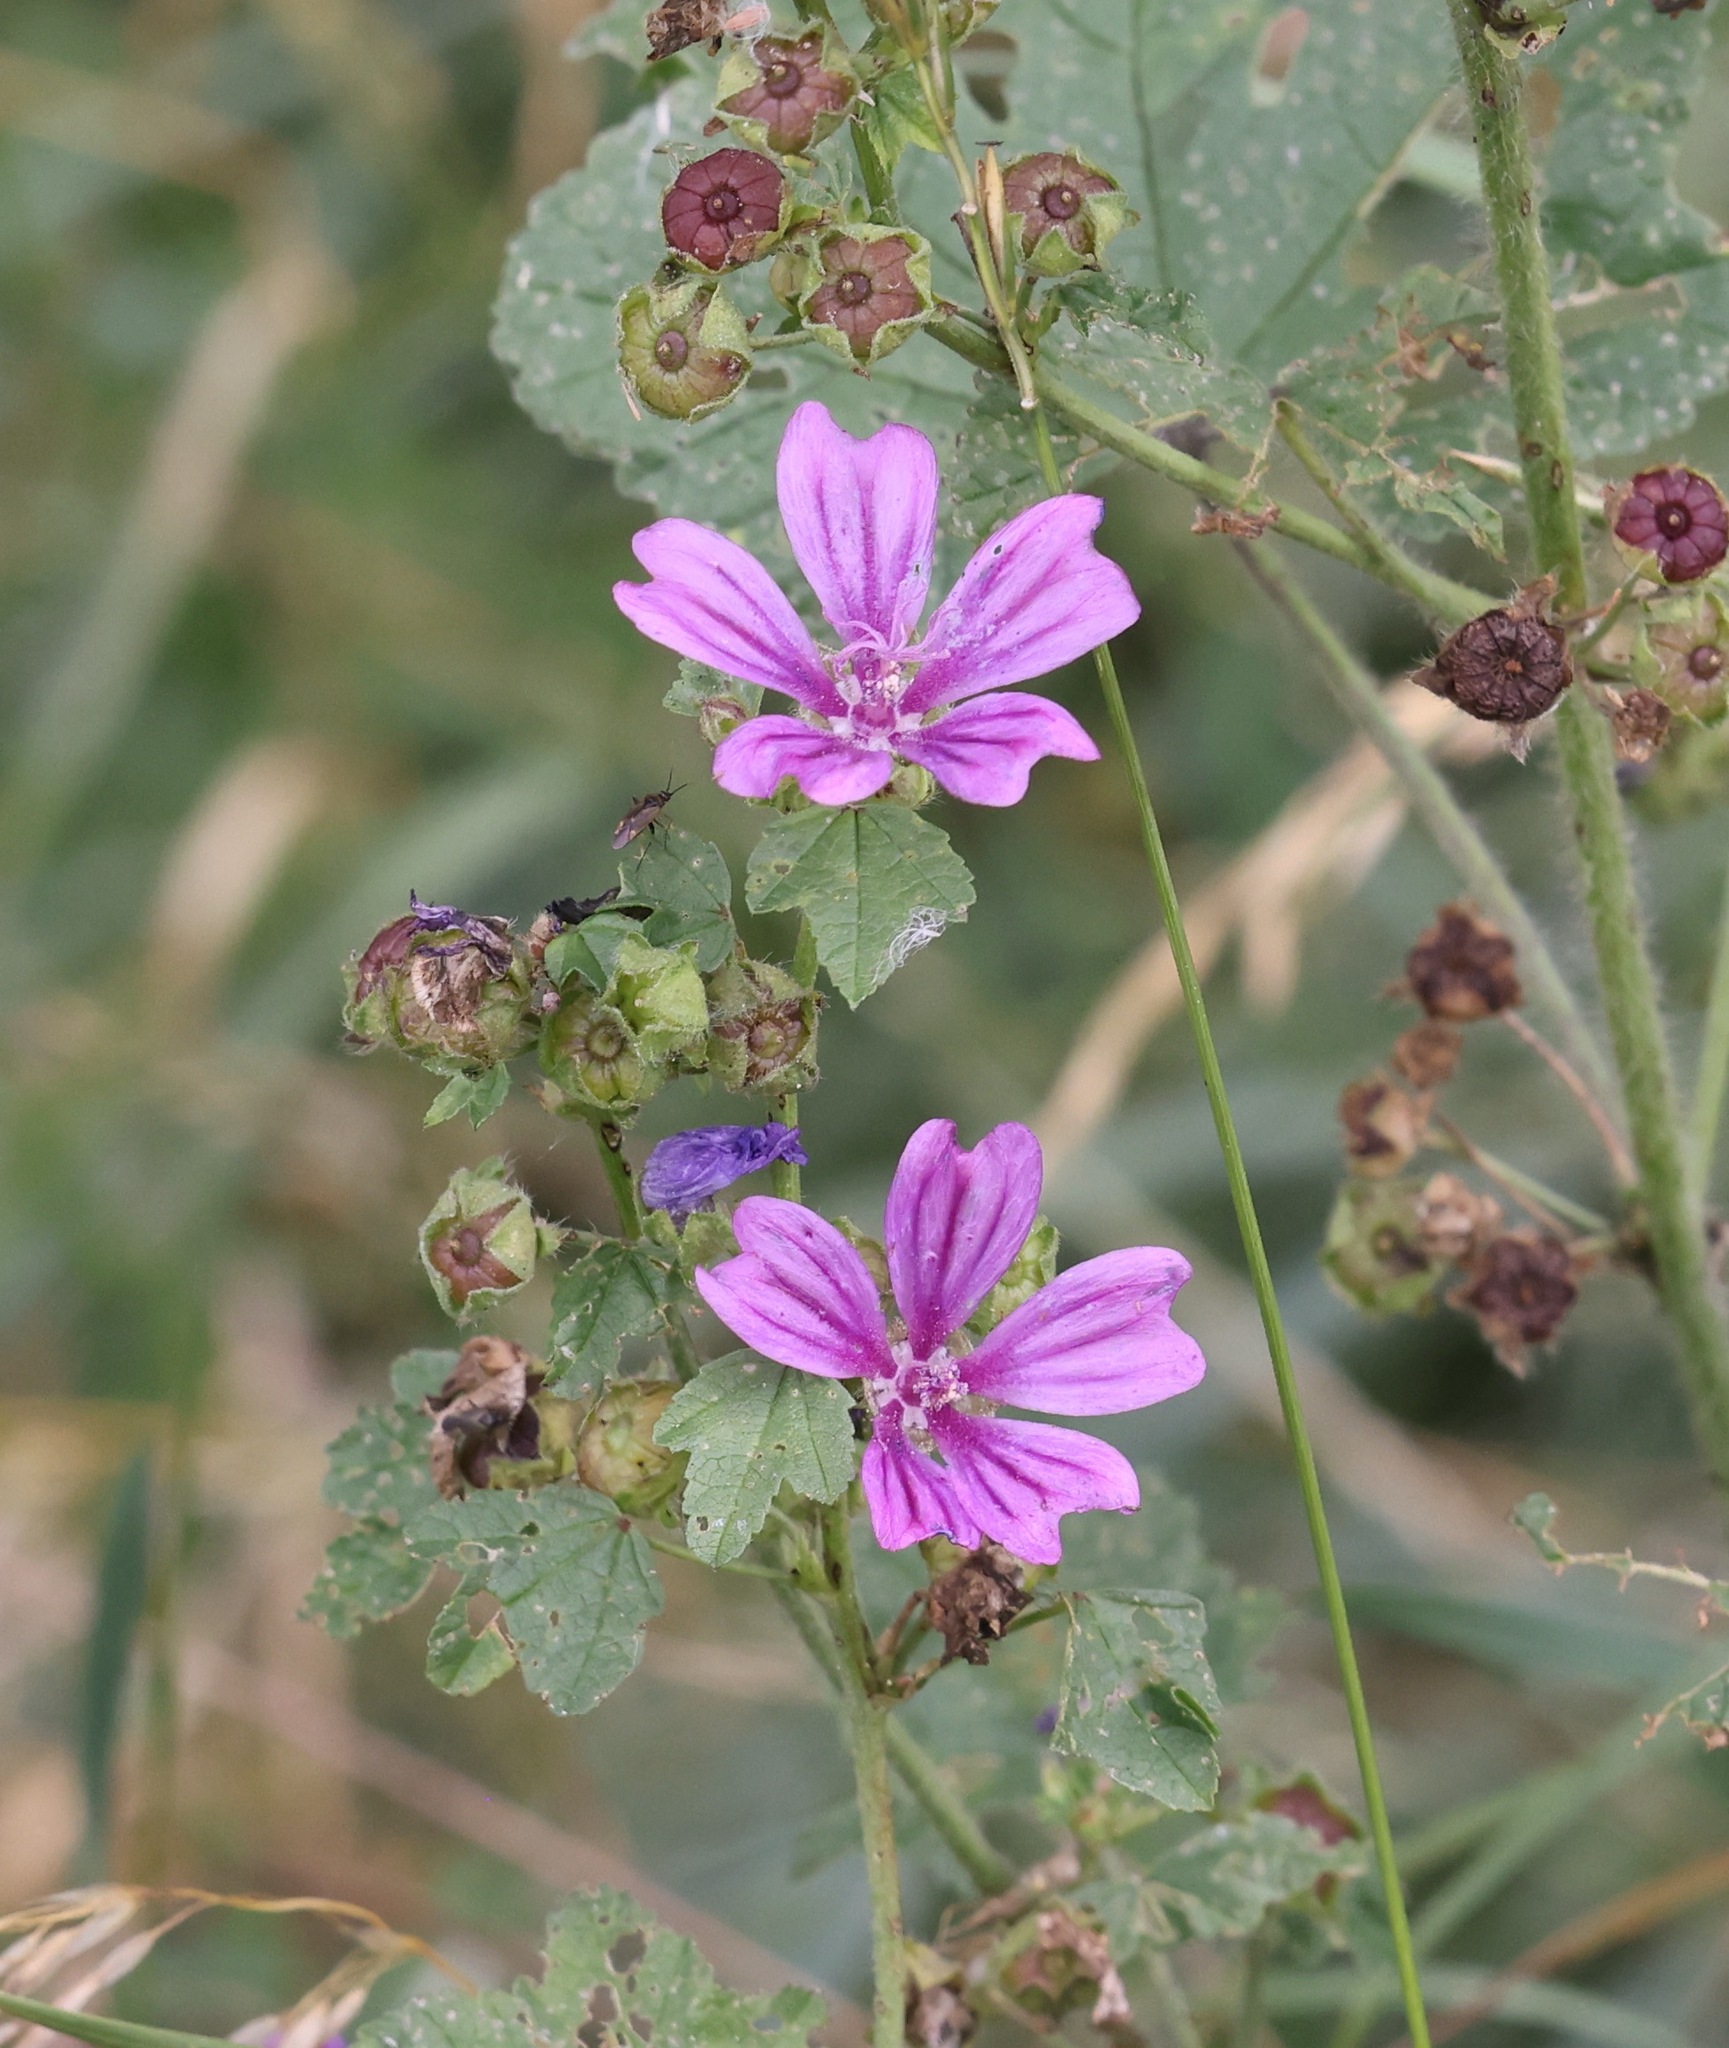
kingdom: Plantae
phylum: Tracheophyta
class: Magnoliopsida
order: Malvales
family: Malvaceae
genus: Malva
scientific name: Malva sylvestris
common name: Common mallow
